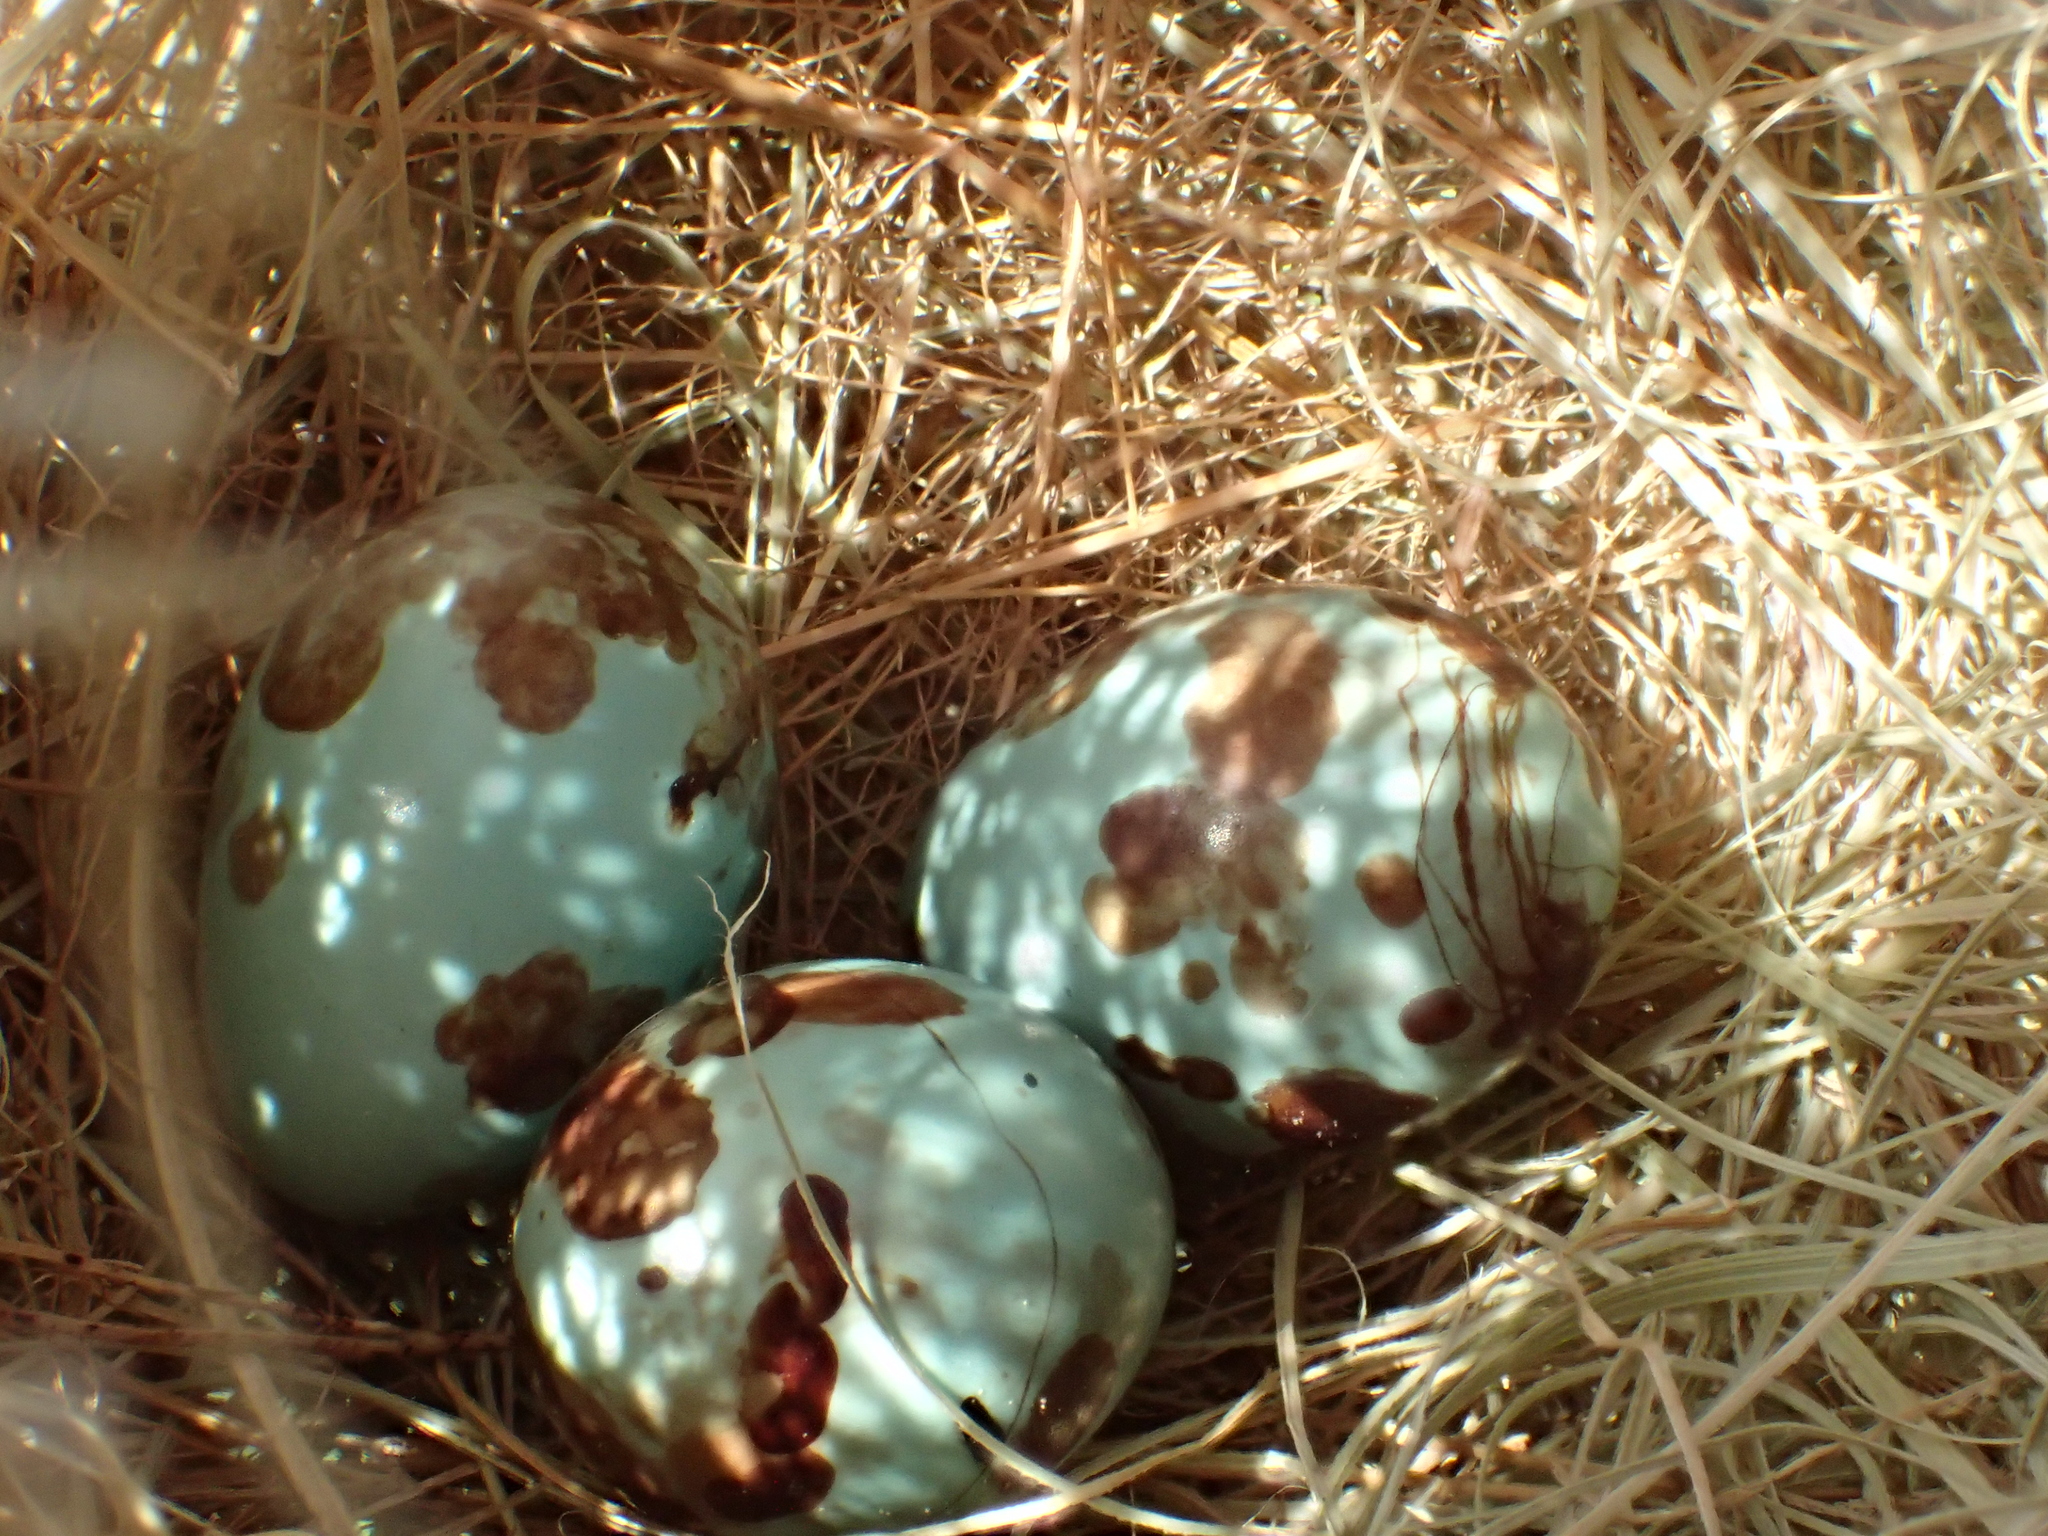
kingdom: Animalia
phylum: Chordata
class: Aves
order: Passeriformes
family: Cisticolidae
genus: Prinia
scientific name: Prinia inornata
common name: Plain prinia
